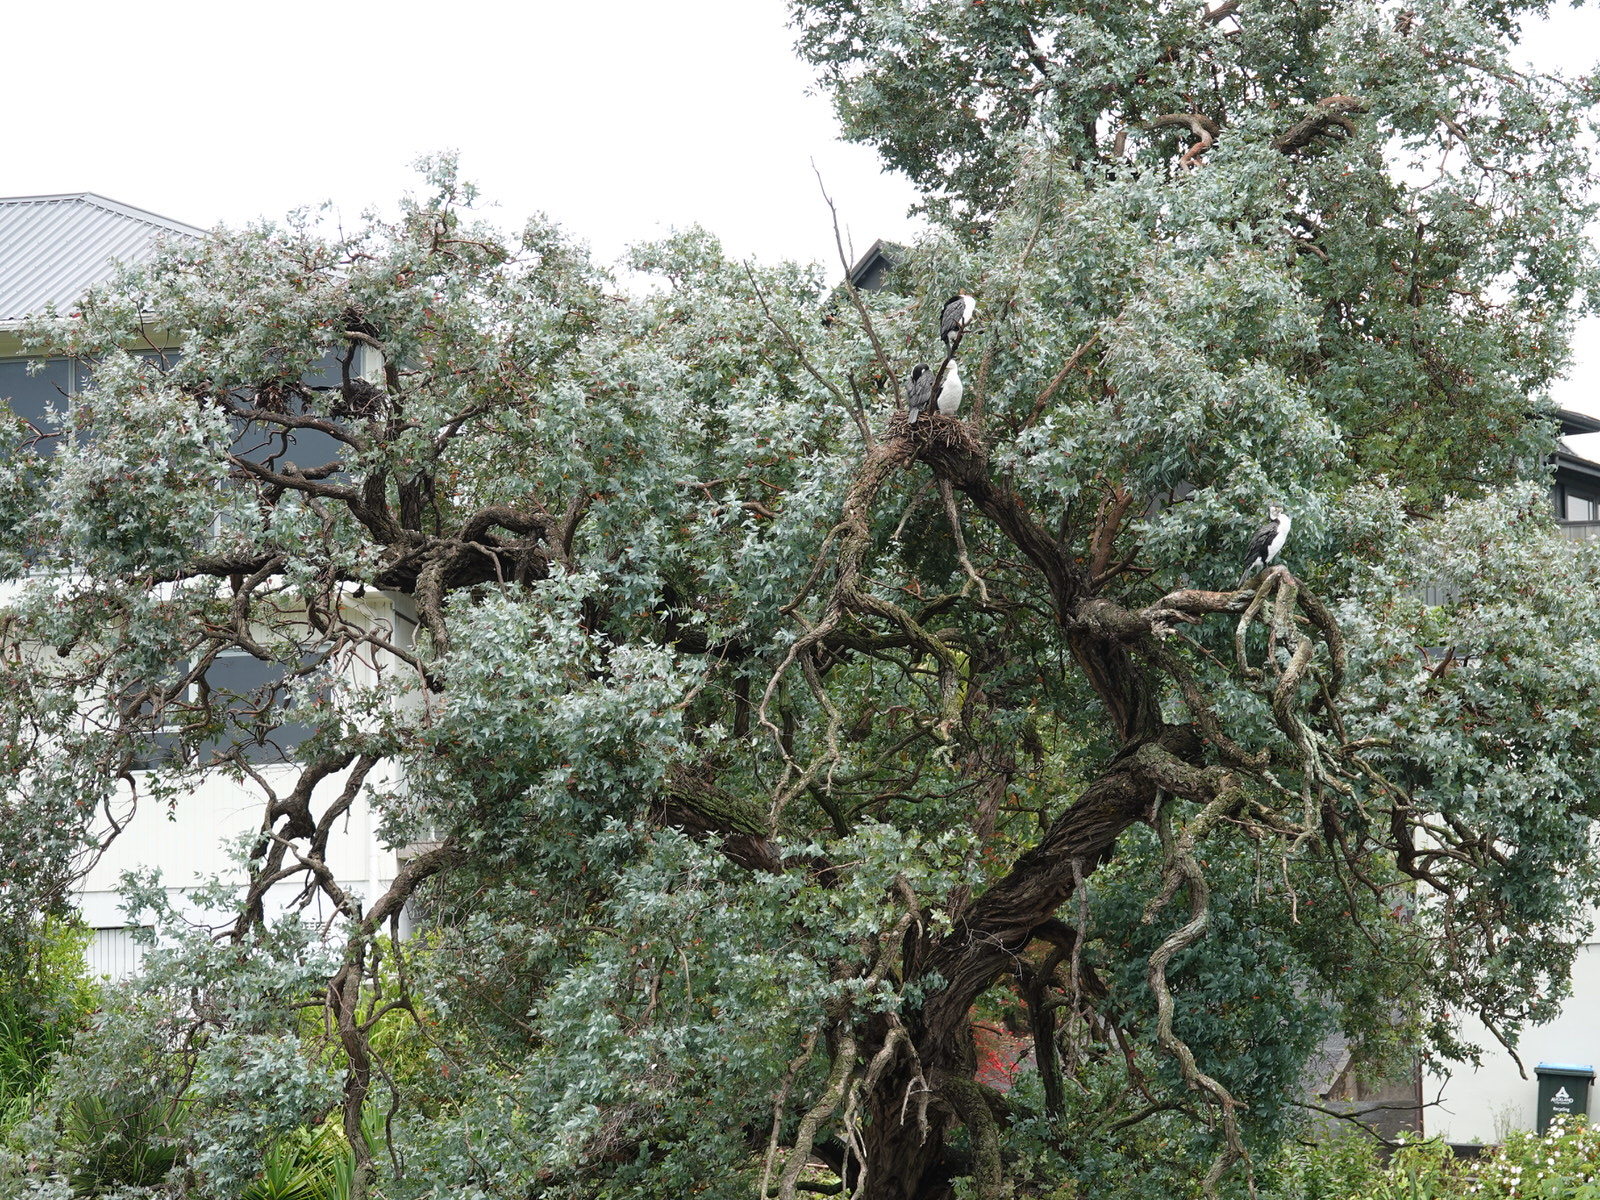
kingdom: Animalia
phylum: Chordata
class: Aves
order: Suliformes
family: Phalacrocoracidae
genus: Phalacrocorax
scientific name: Phalacrocorax varius
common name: Pied cormorant
